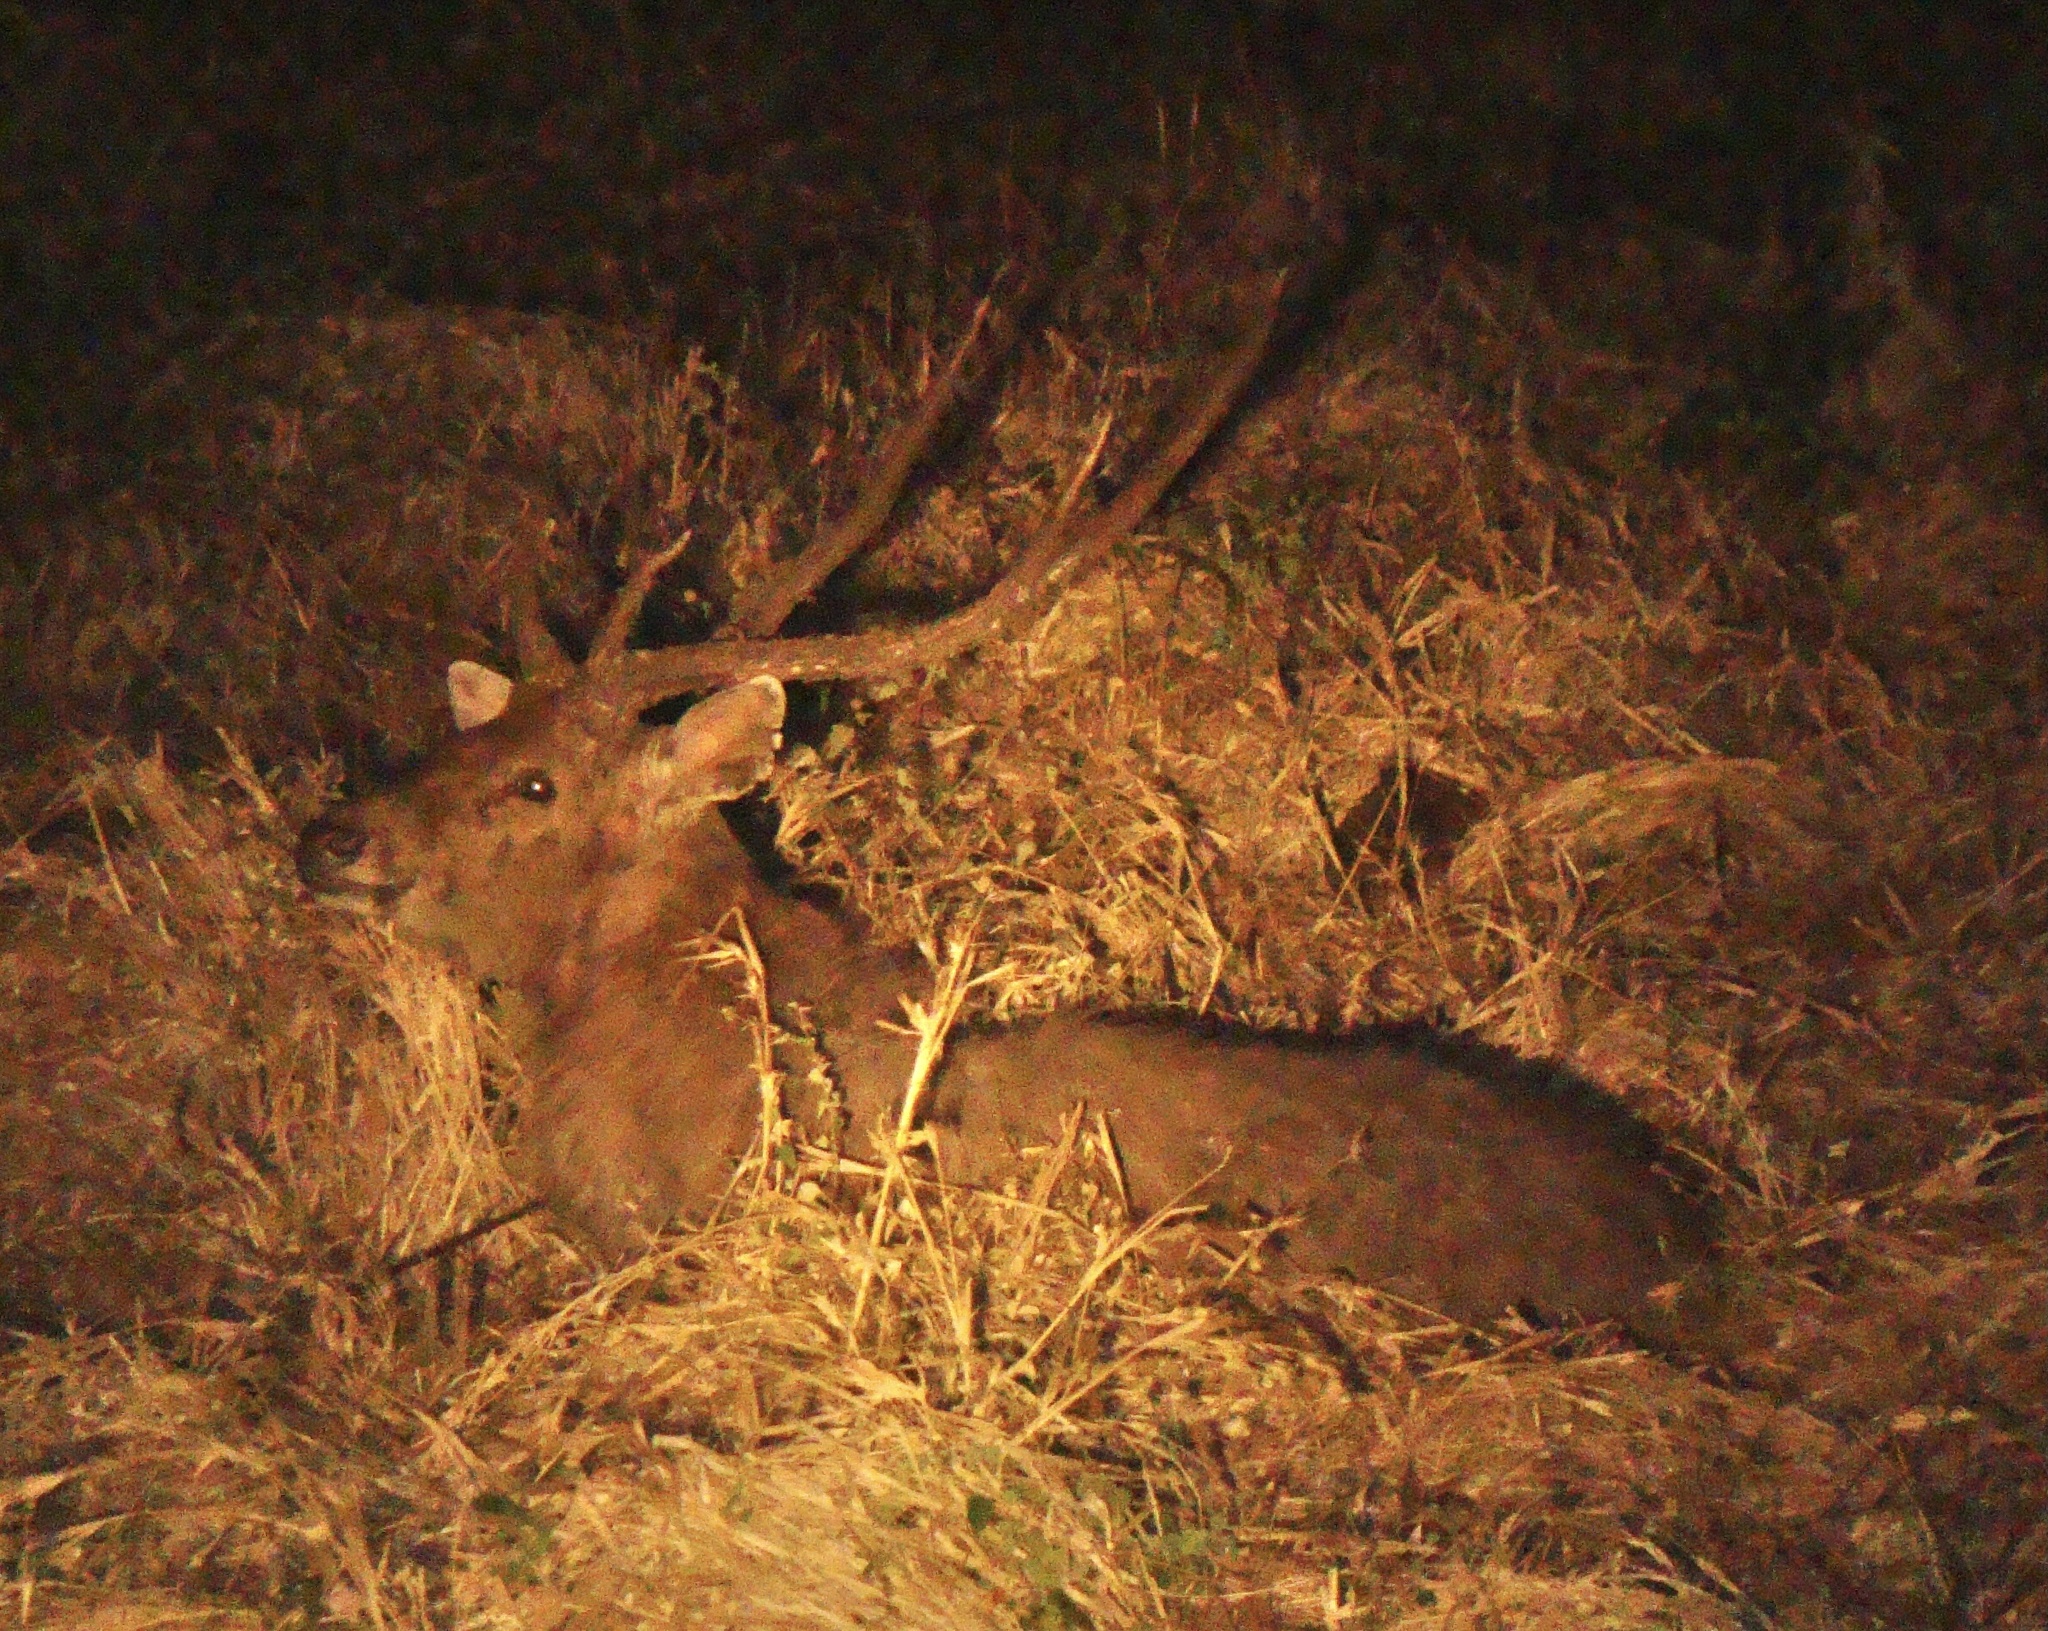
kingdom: Animalia
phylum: Chordata
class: Mammalia
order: Artiodactyla
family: Cervidae
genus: Rusa
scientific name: Rusa timorensis
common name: Javan rusa
